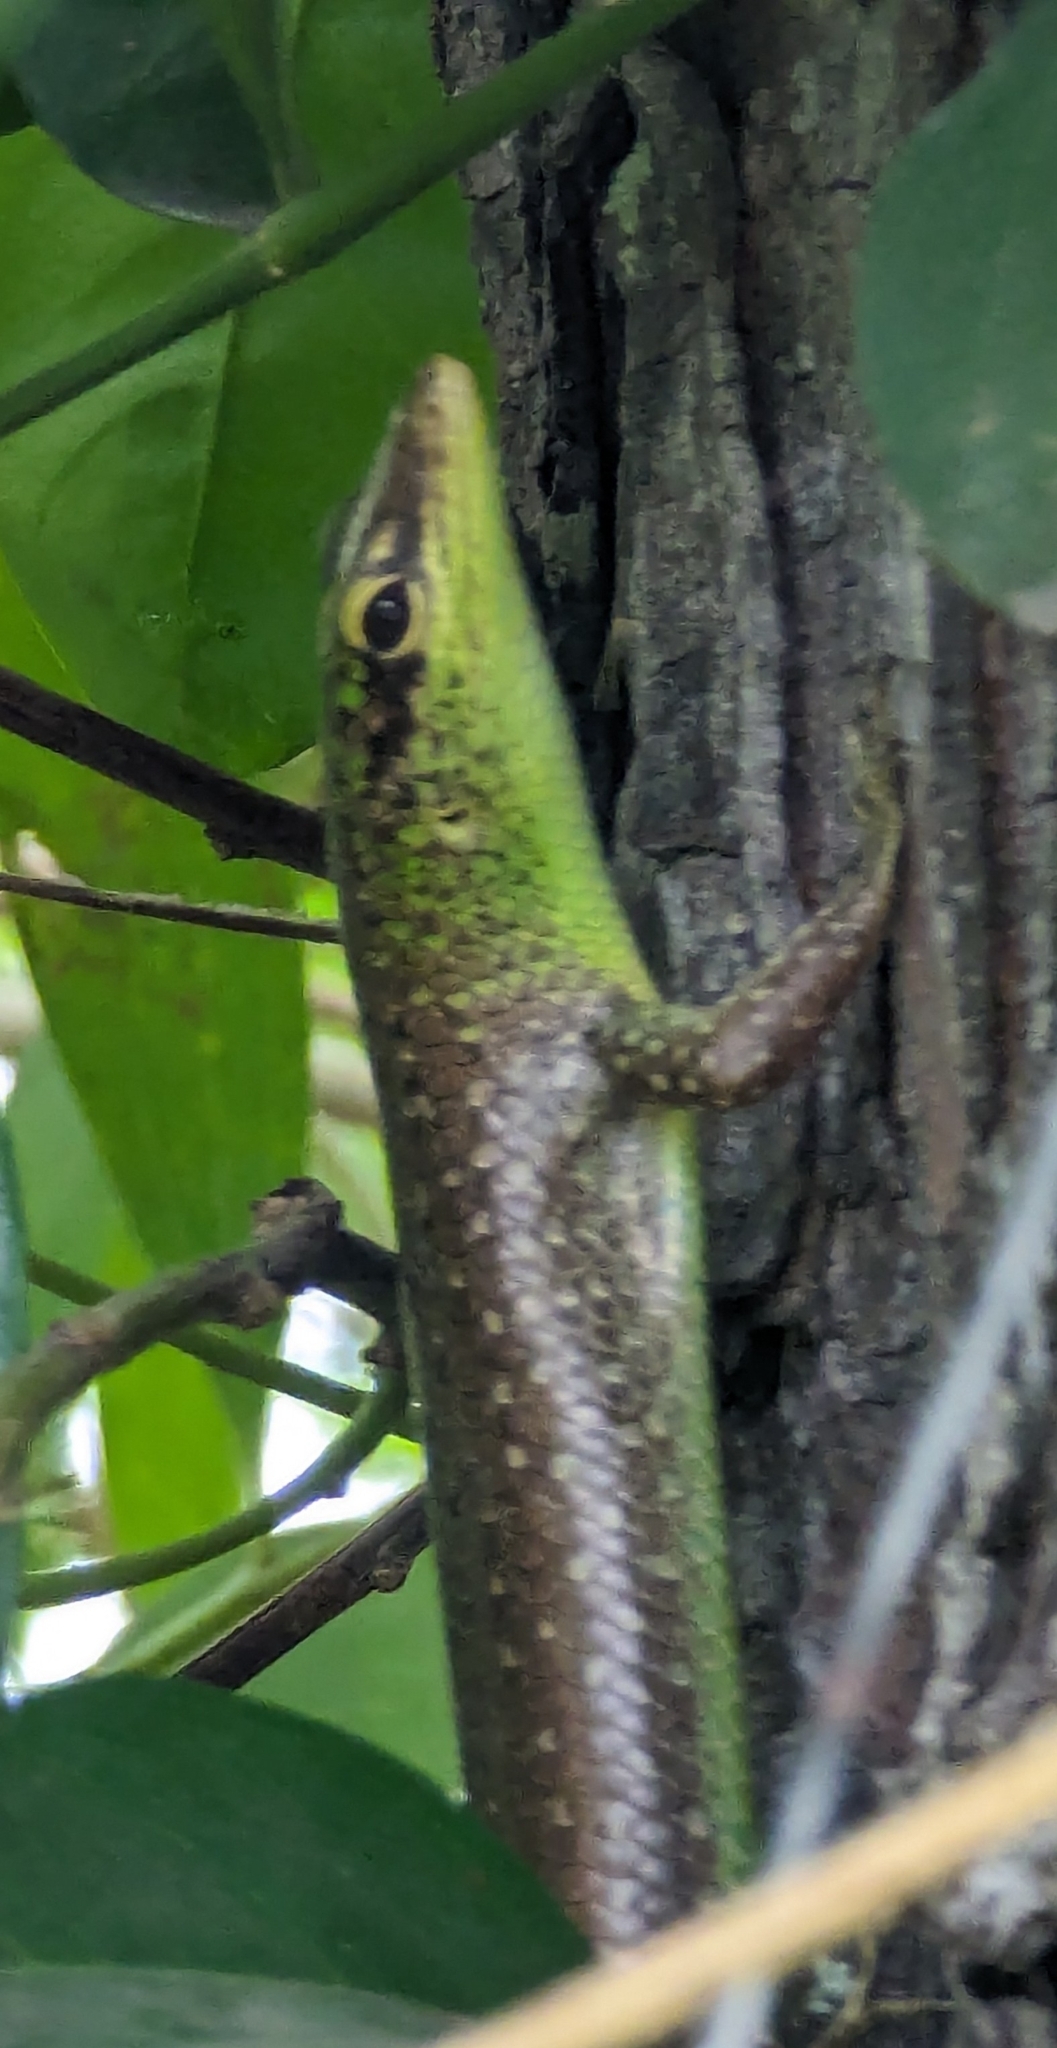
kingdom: Animalia
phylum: Chordata
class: Squamata
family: Scincidae
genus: Lamprolepis
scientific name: Lamprolepis smaragdina
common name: Emerald skink
